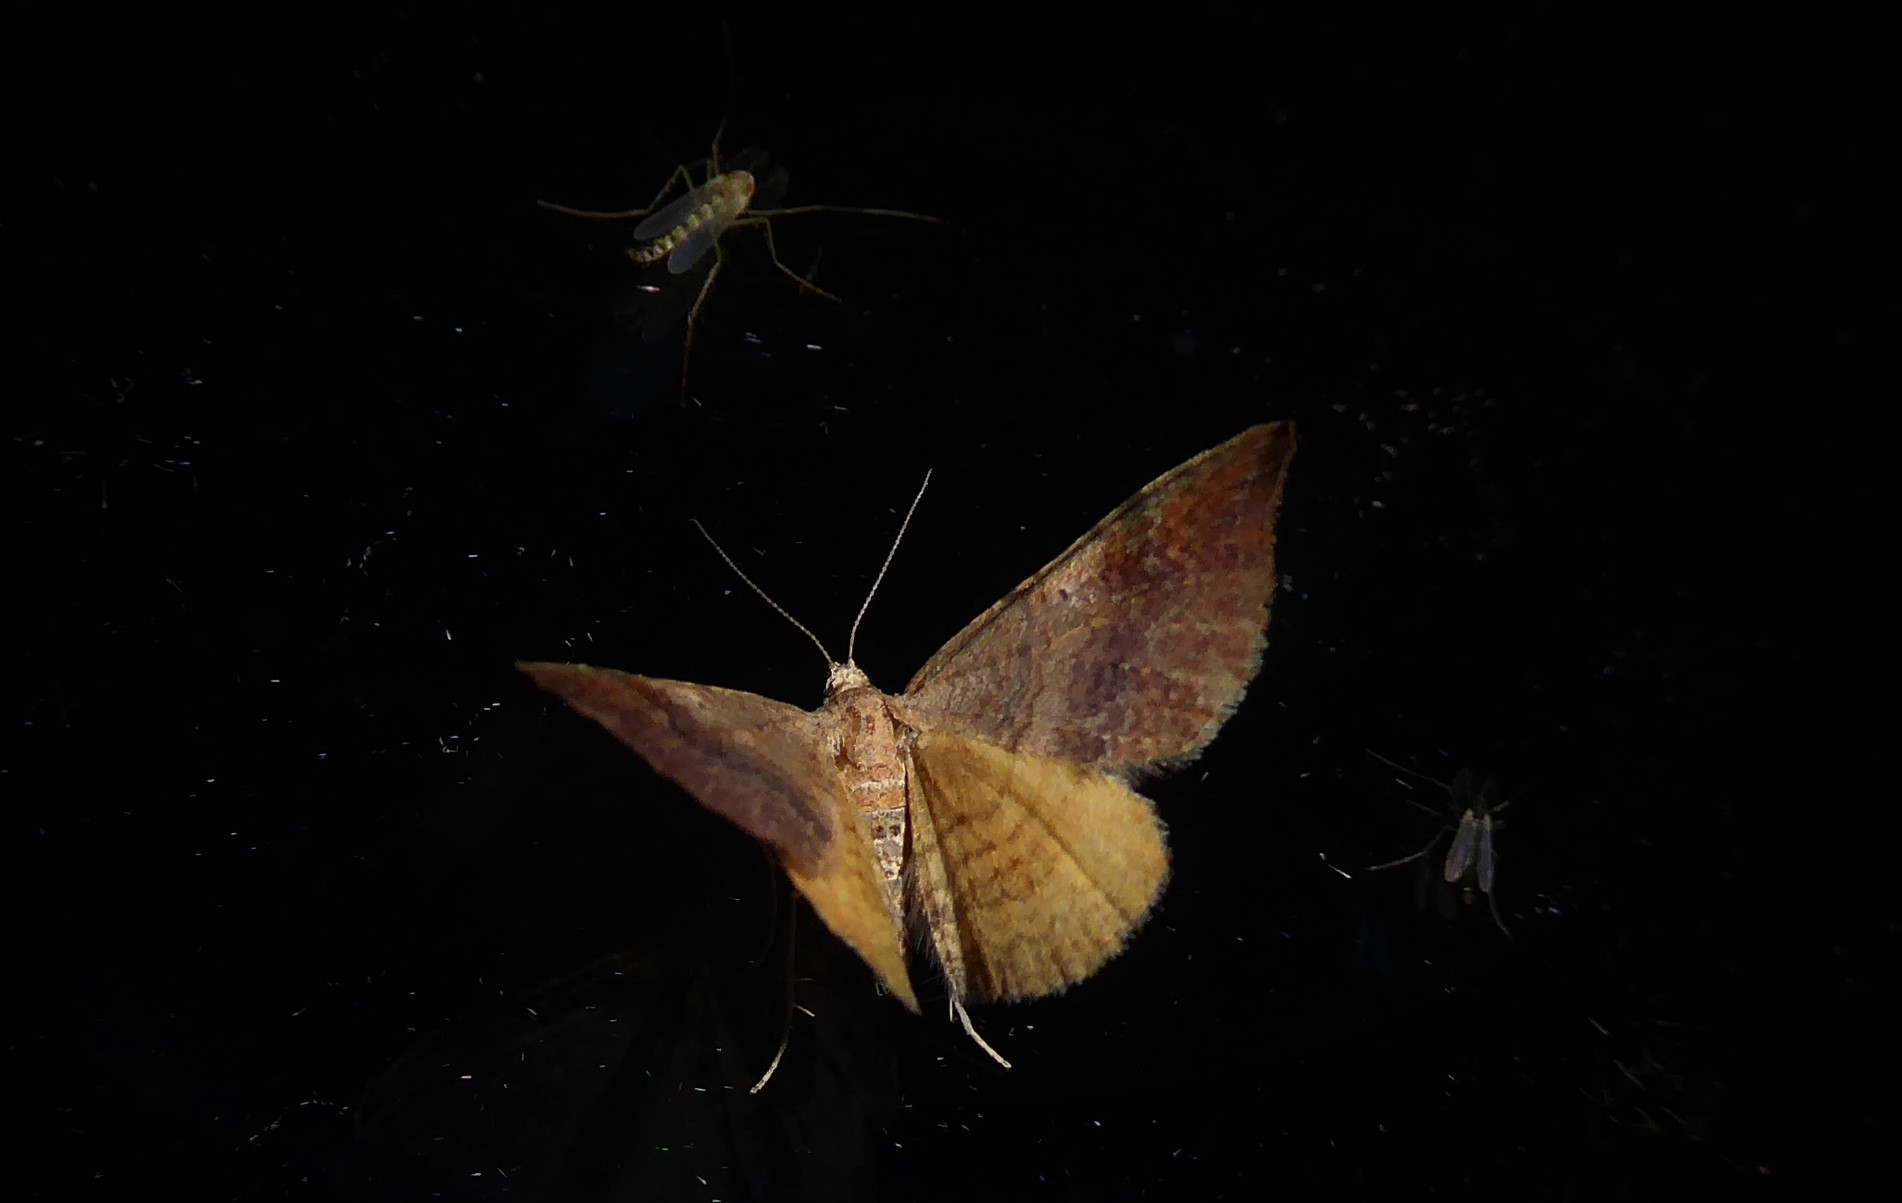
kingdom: Animalia
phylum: Arthropoda
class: Insecta
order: Lepidoptera
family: Geometridae
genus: Homodotis
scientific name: Homodotis megaspilata
